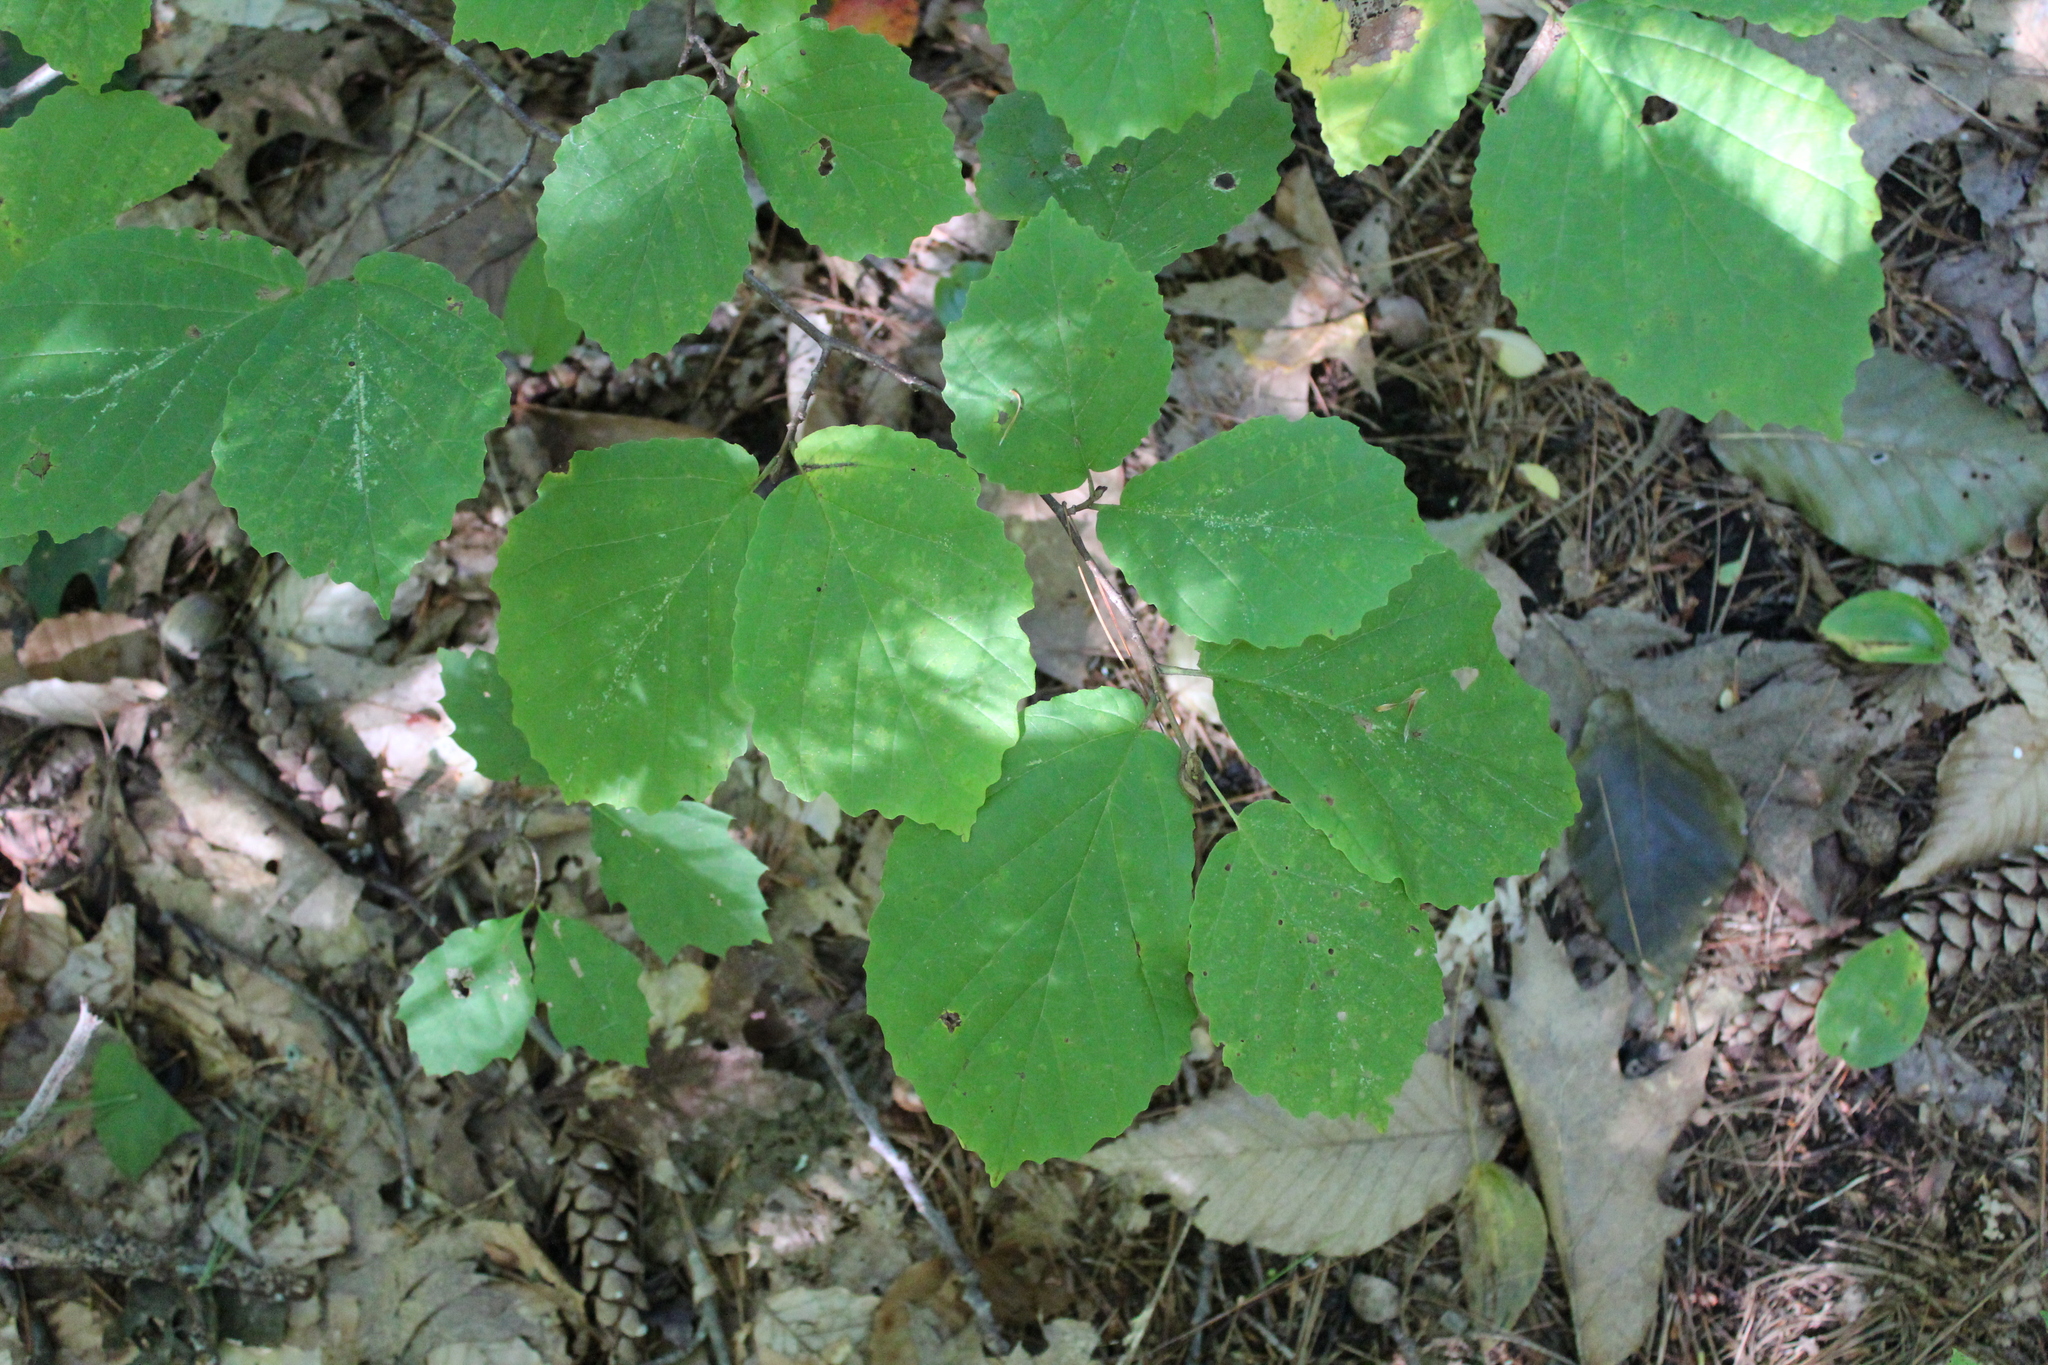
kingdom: Plantae
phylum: Tracheophyta
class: Magnoliopsida
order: Saxifragales
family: Hamamelidaceae
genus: Hamamelis
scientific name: Hamamelis virginiana
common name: Witch-hazel
